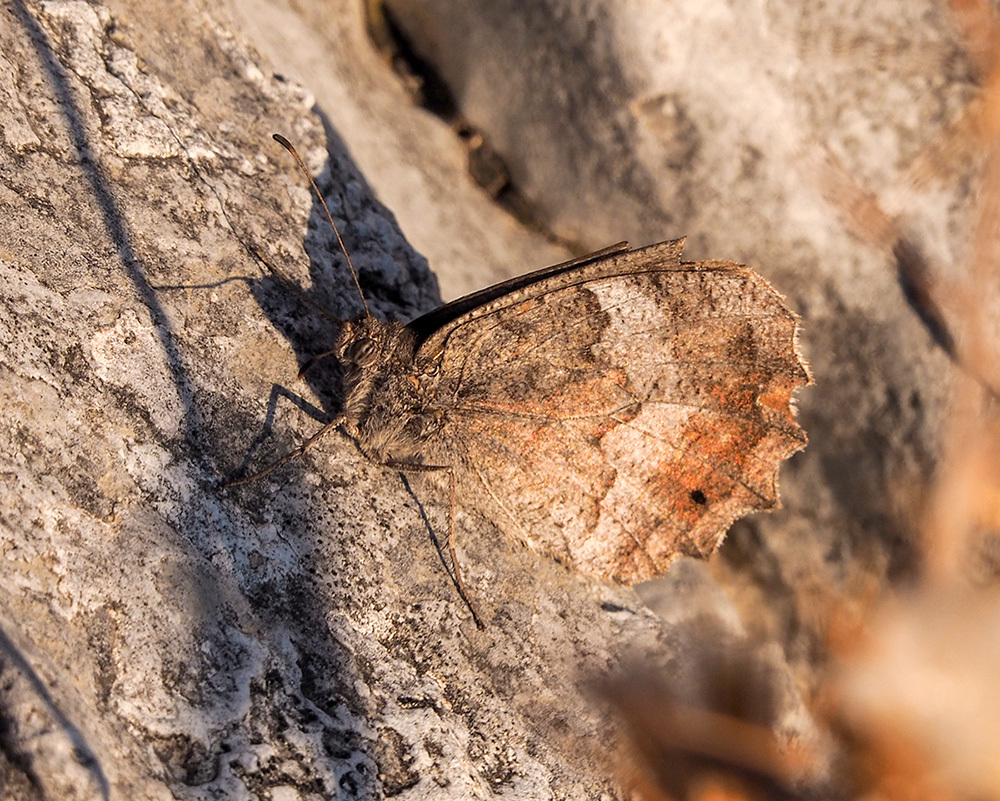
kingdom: Animalia
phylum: Arthropoda
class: Insecta
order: Lepidoptera
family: Nymphalidae
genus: Hipparchia
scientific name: Hipparchia statilinus
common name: Tree grayling
